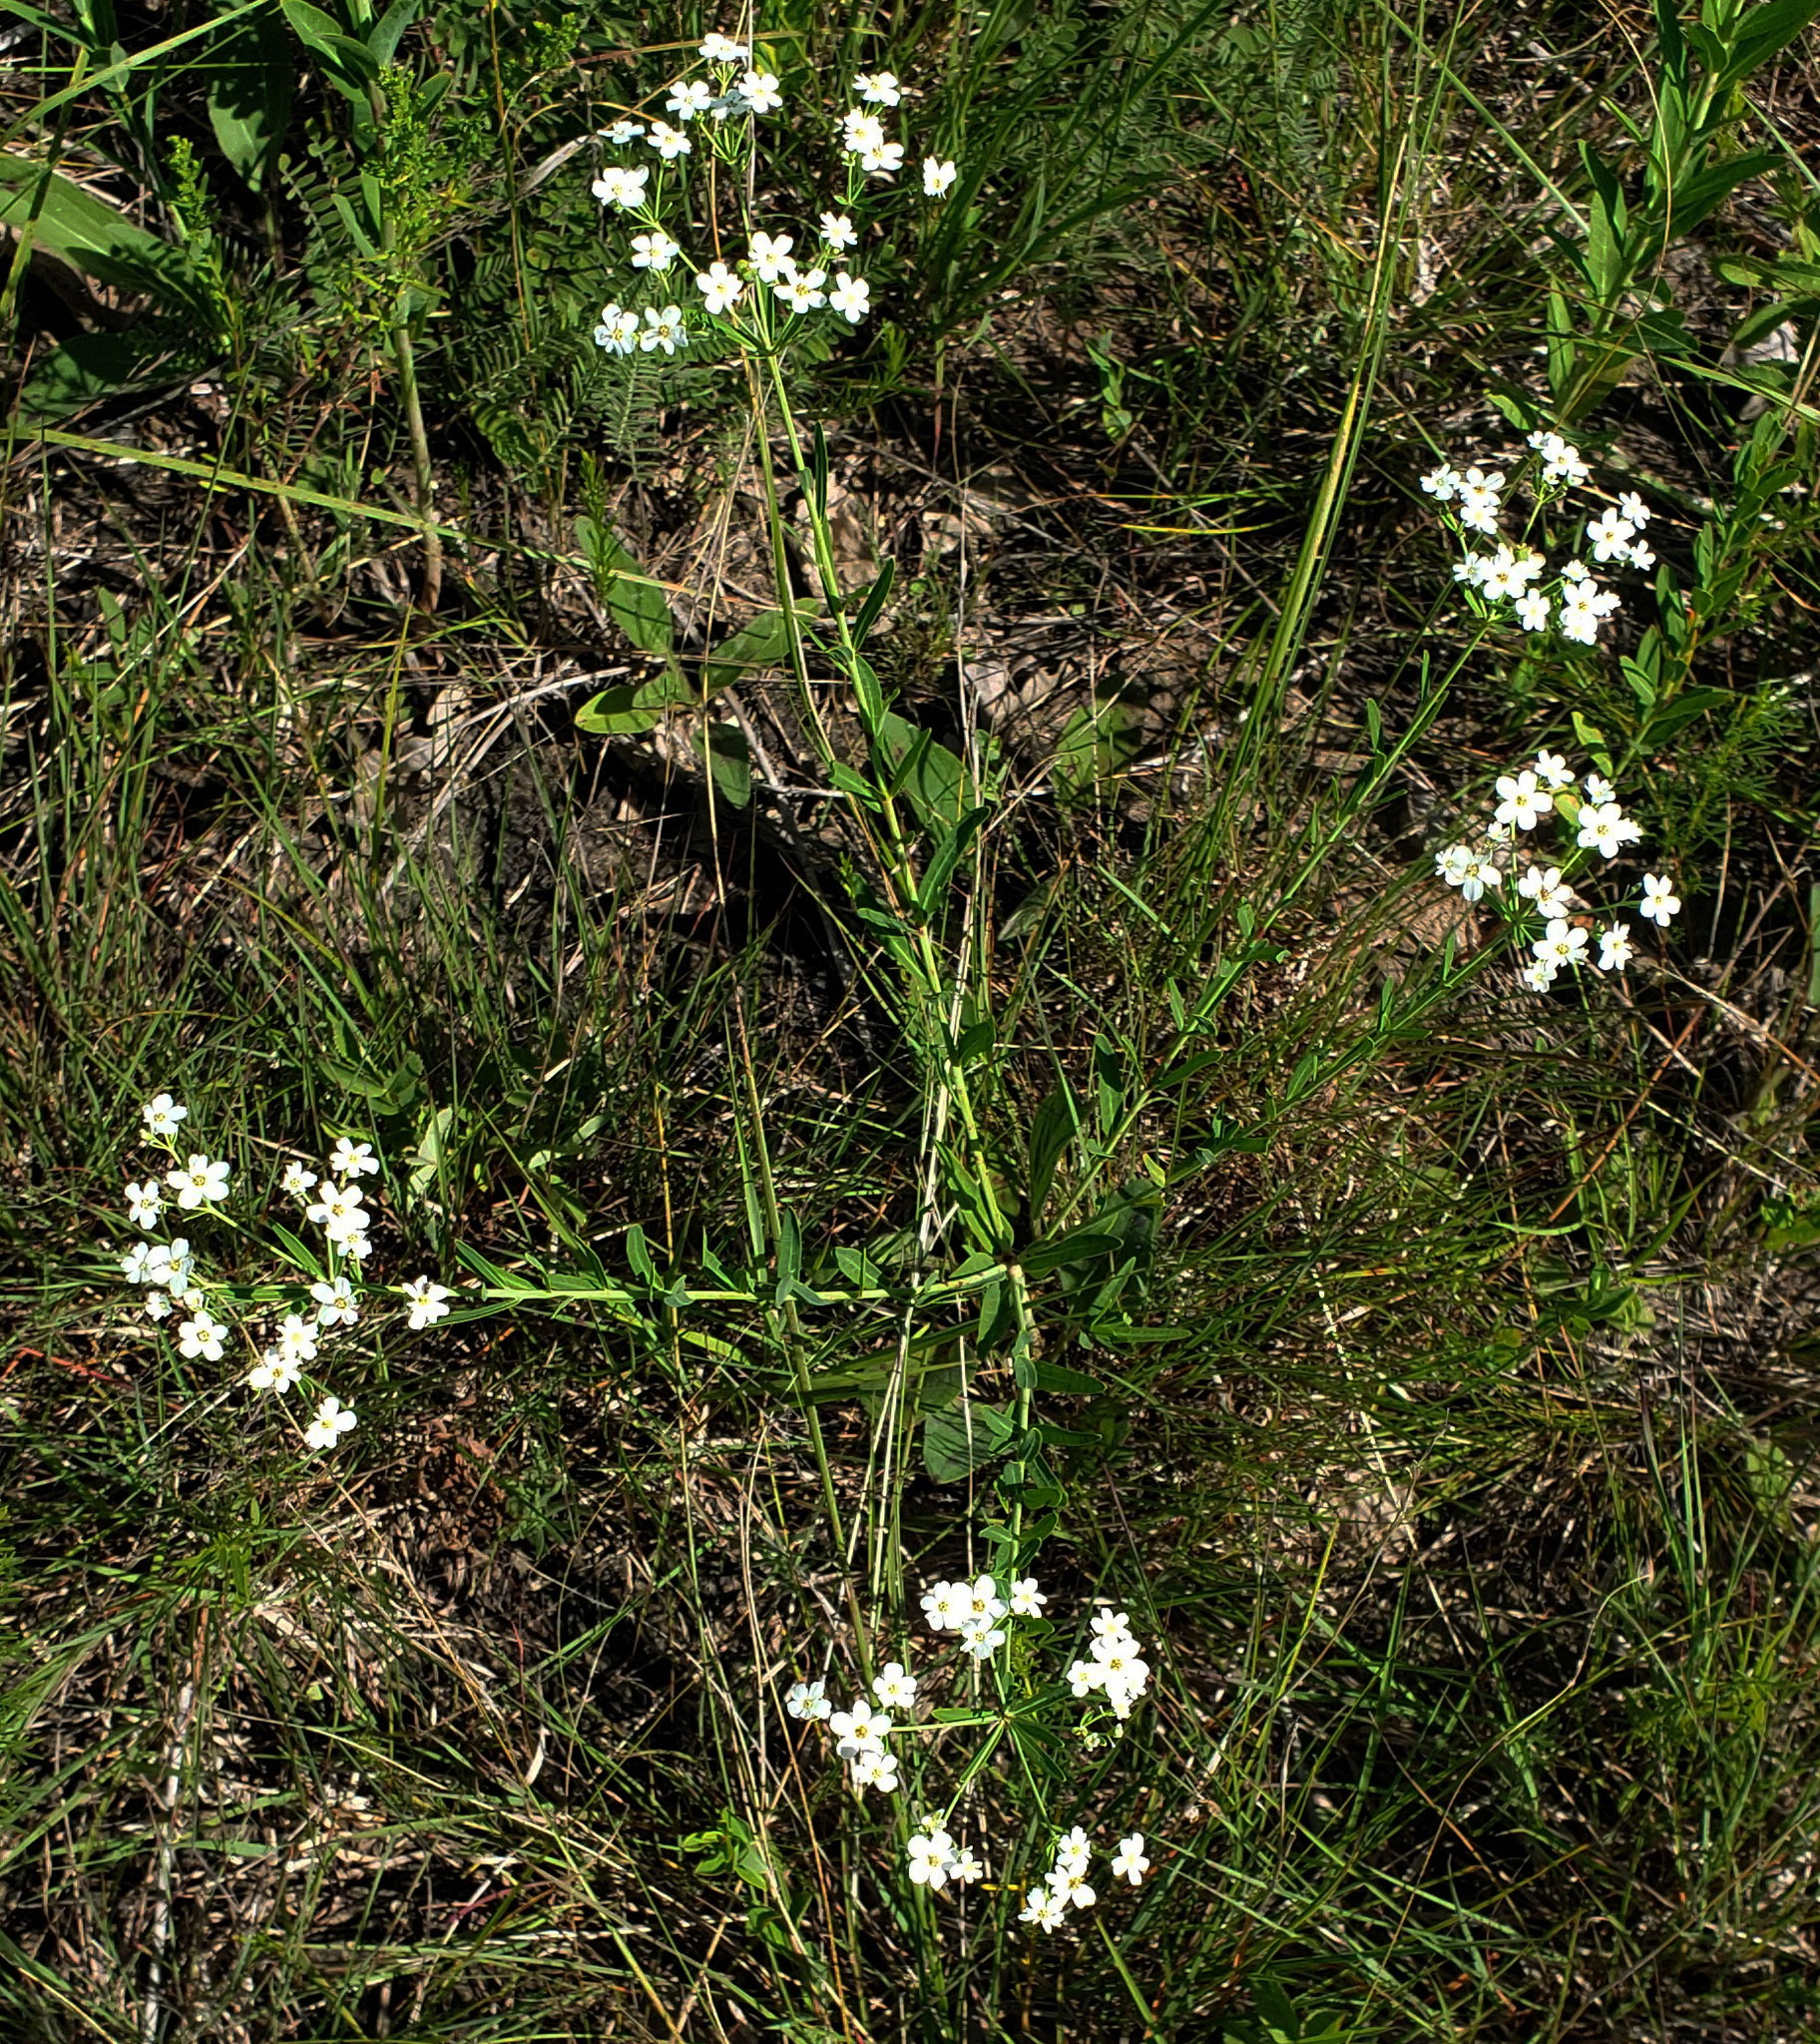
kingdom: Plantae
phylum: Tracheophyta
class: Magnoliopsida
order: Malpighiales
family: Euphorbiaceae
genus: Euphorbia
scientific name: Euphorbia corollata
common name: Flowering spurge
